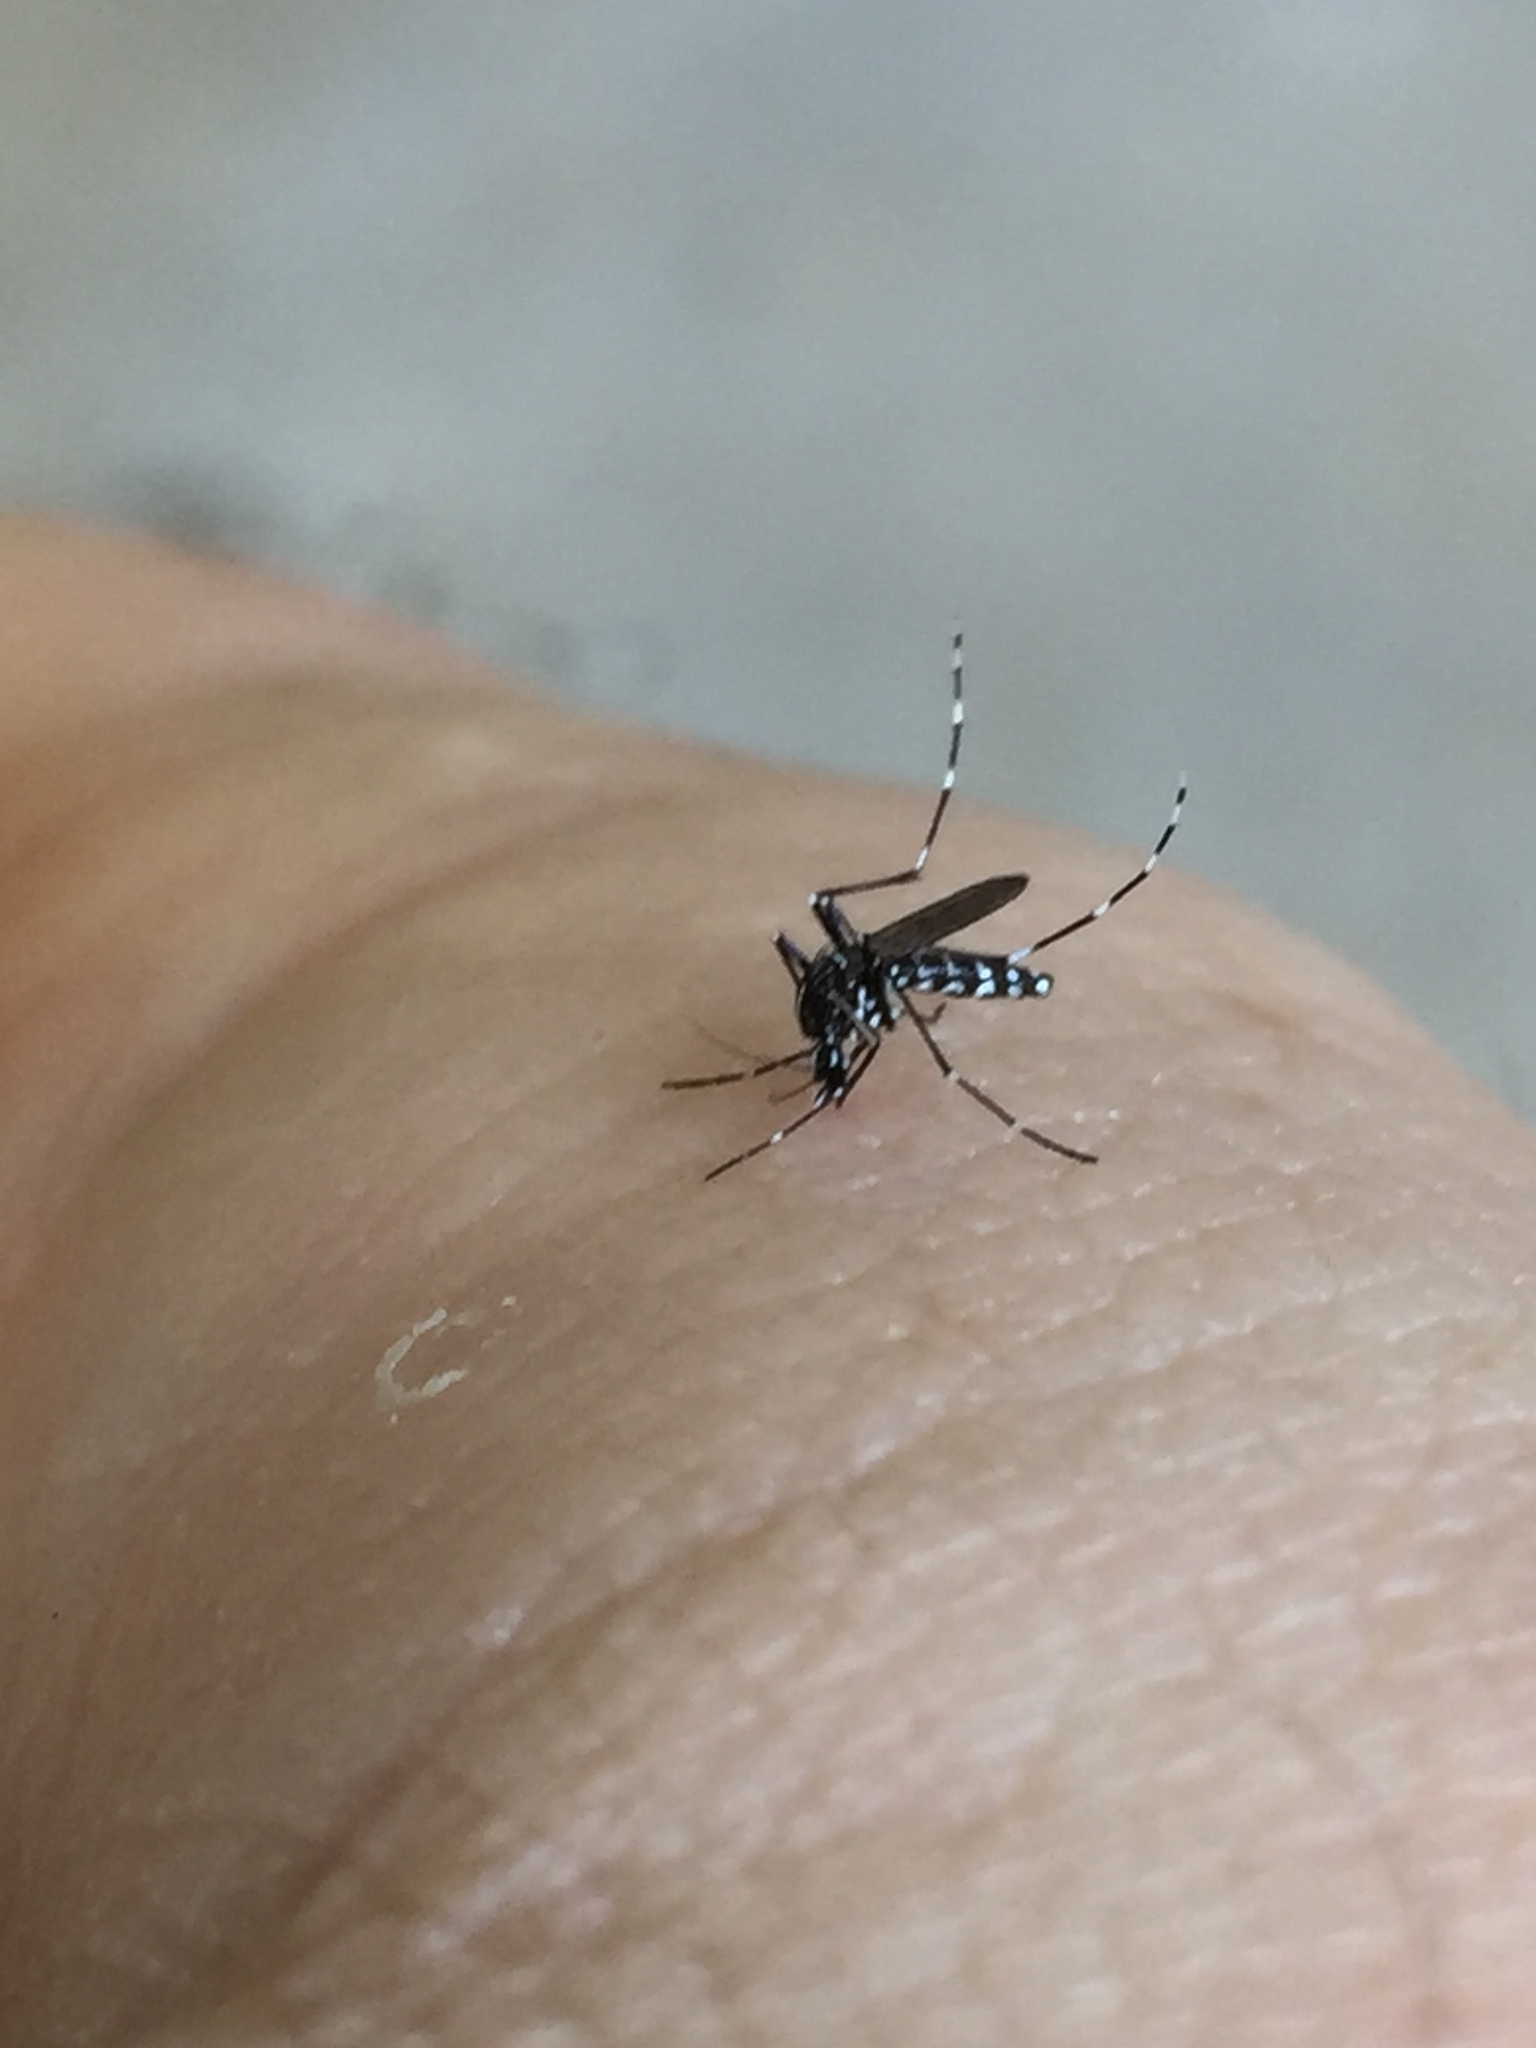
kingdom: Animalia
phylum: Arthropoda
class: Insecta
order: Diptera
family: Culicidae
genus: Aedes
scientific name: Aedes albopictus
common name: Tiger mosquito
